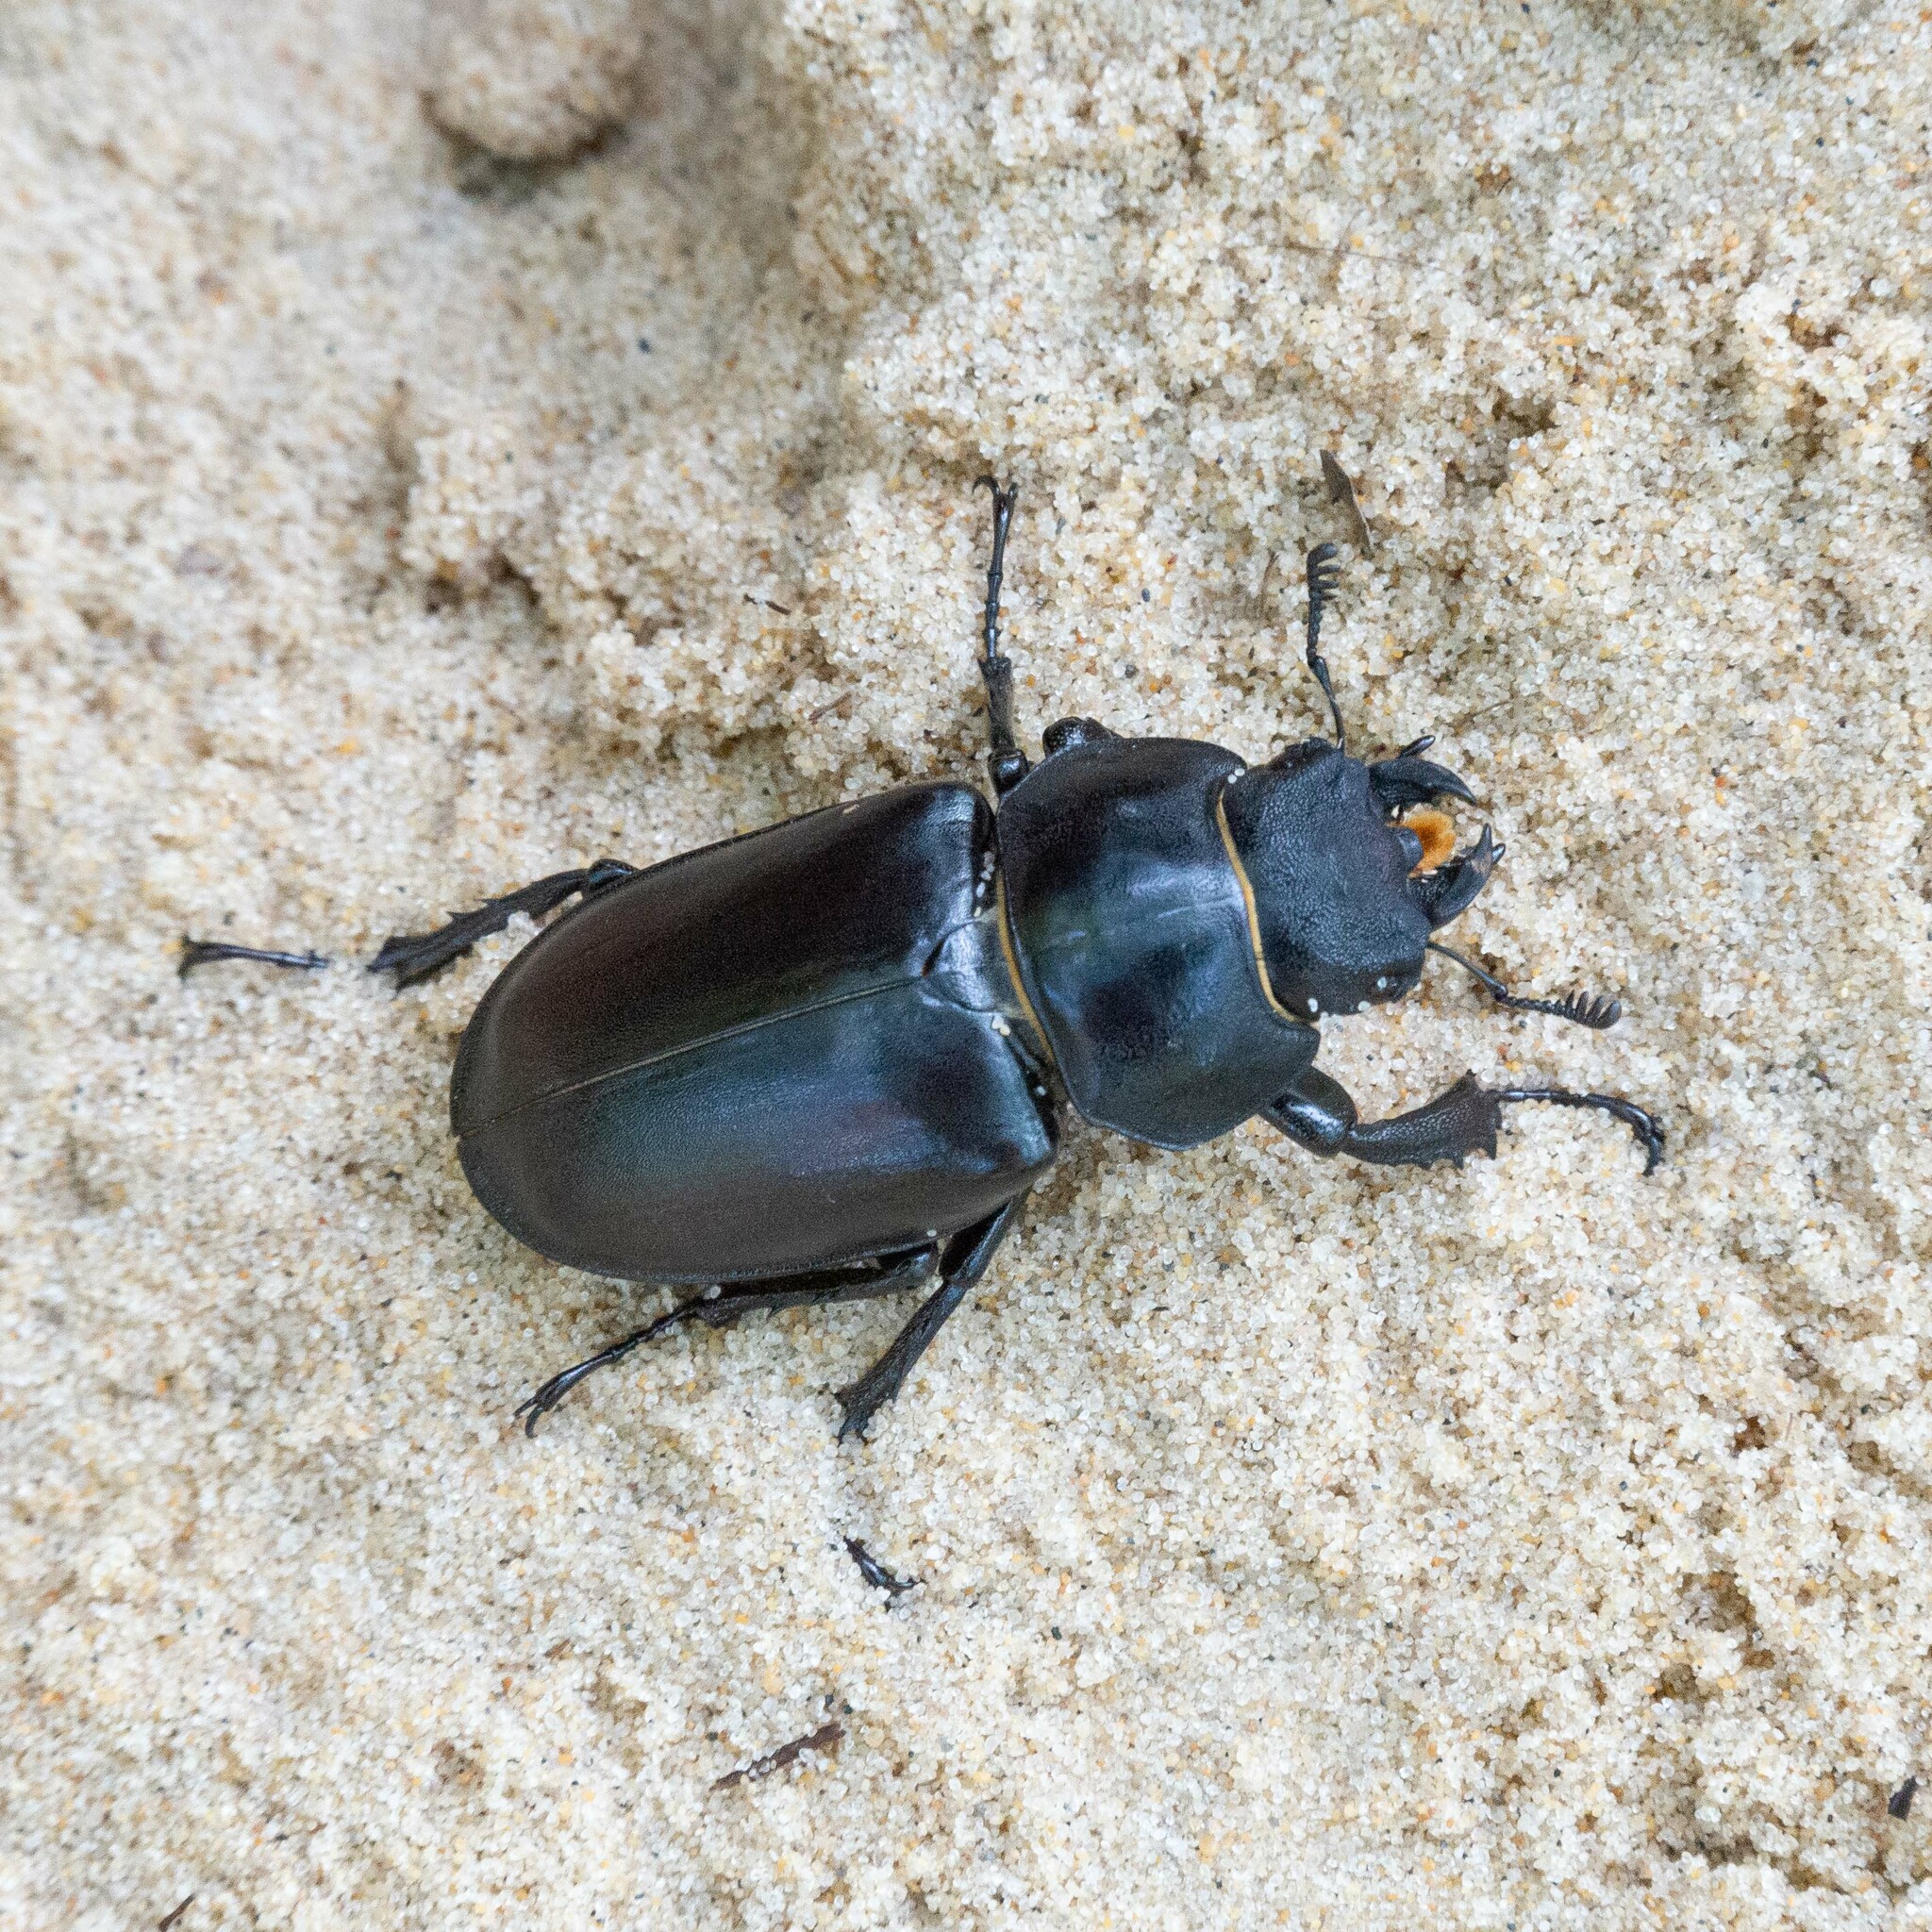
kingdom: Animalia
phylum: Arthropoda
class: Insecta
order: Coleoptera
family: Lucanidae
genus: Lucanus
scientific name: Lucanus cervus
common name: Stag beetle
